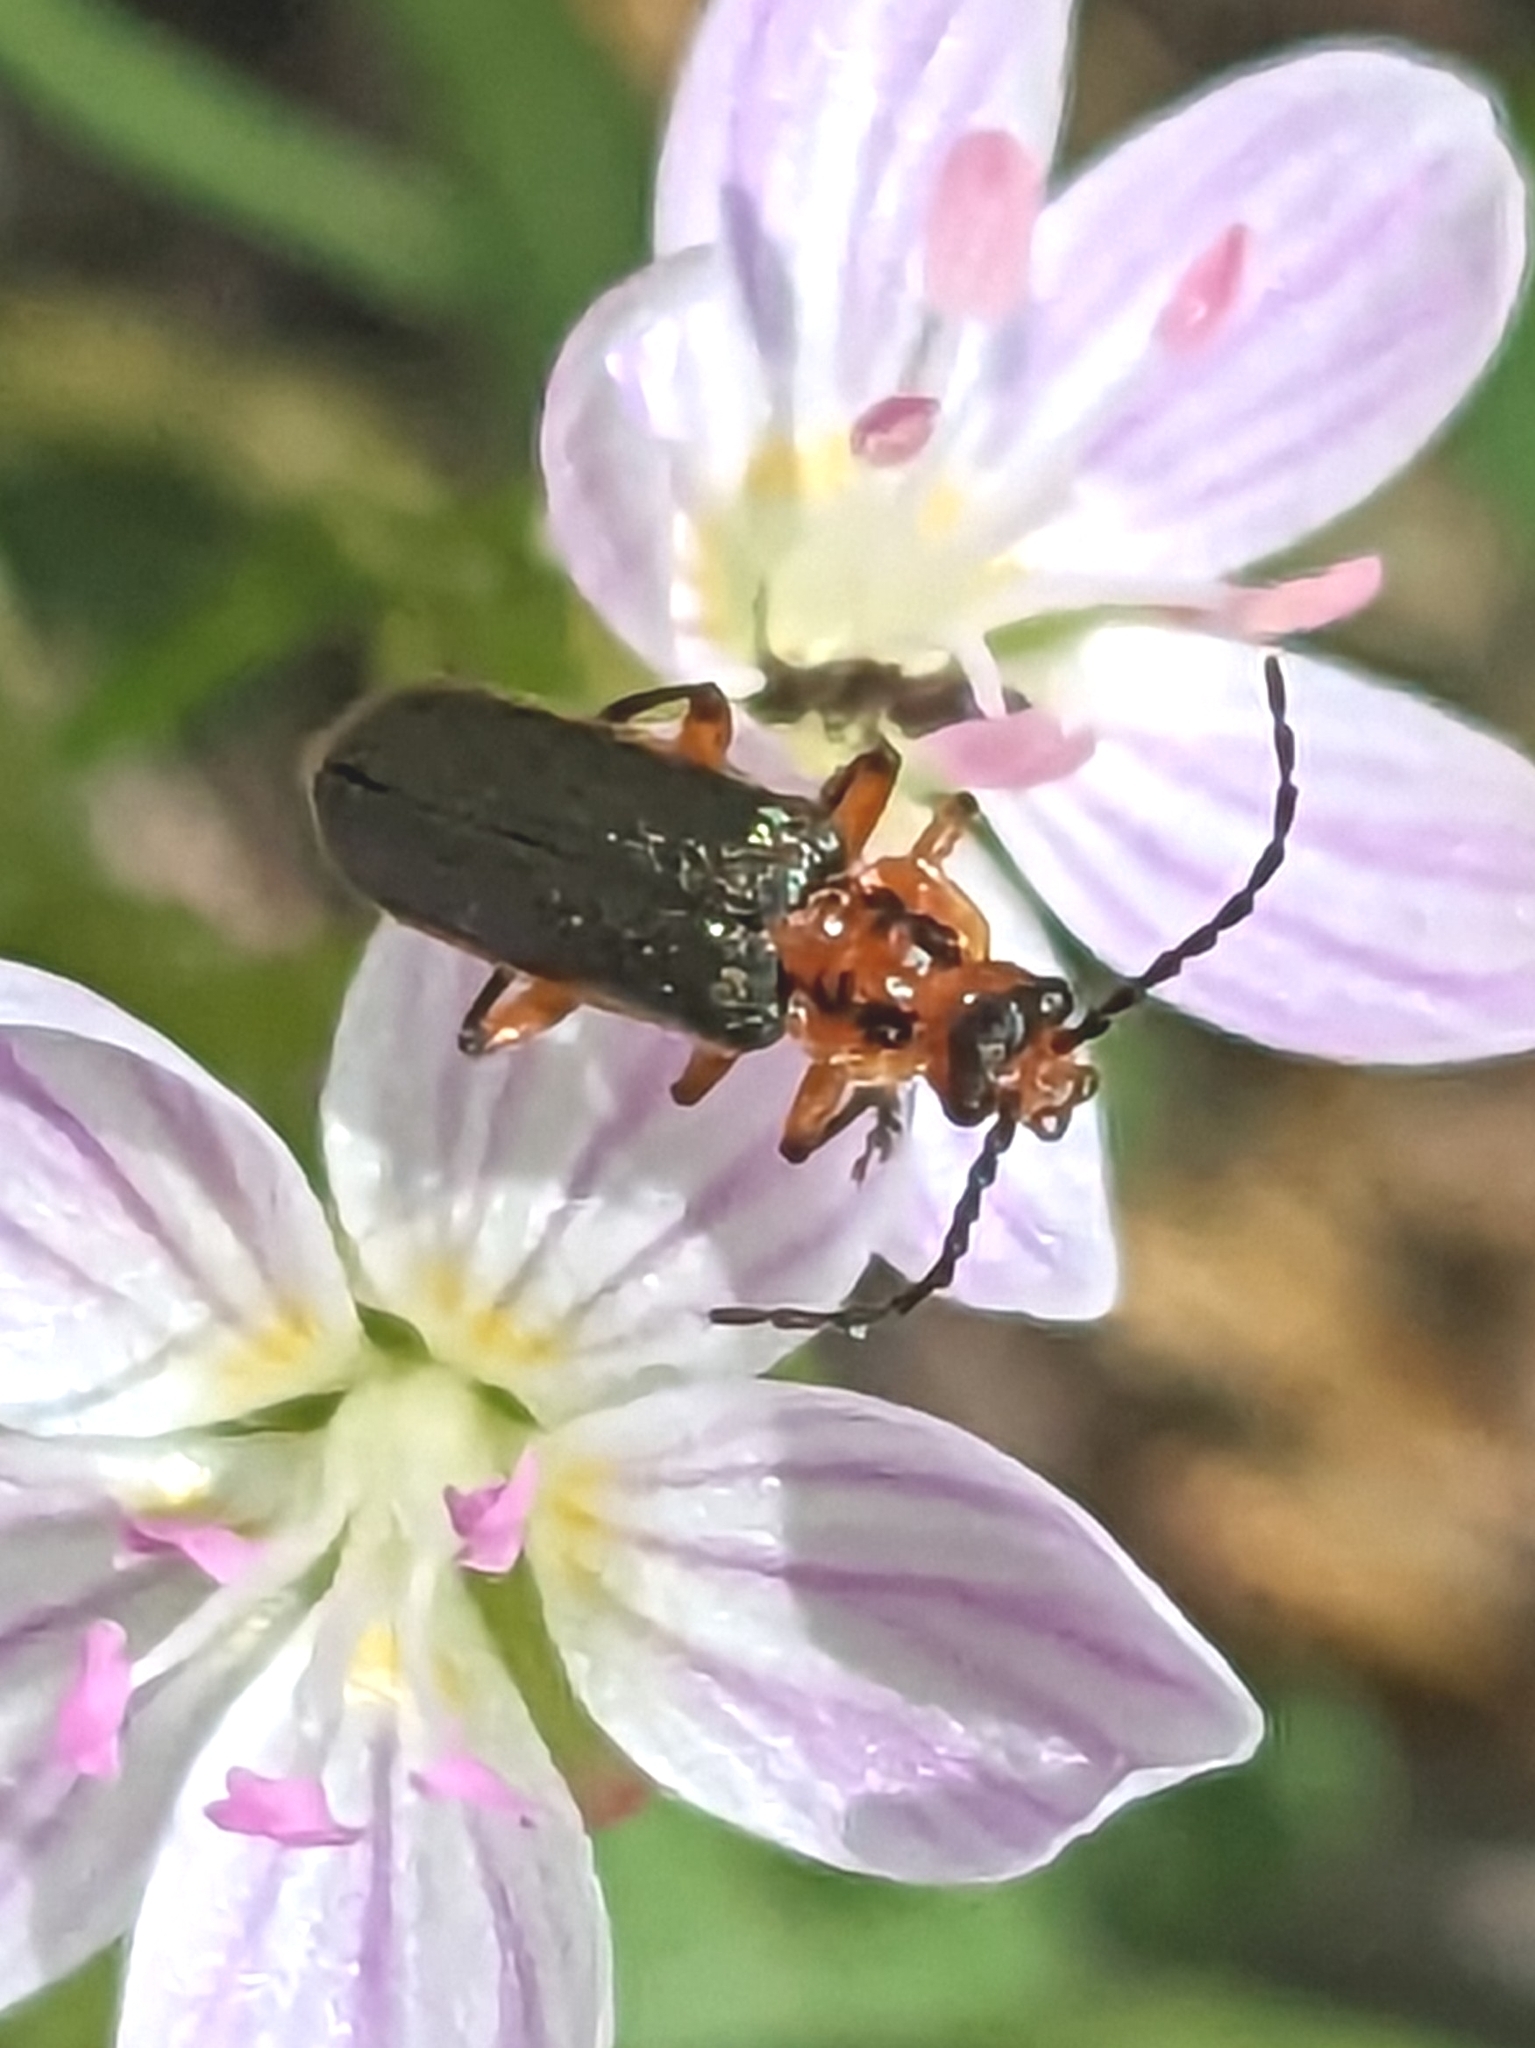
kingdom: Animalia
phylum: Arthropoda
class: Insecta
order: Coleoptera
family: Cantharidae
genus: Atalantycha
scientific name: Atalantycha bilineata
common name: Two-lined leatherwing
